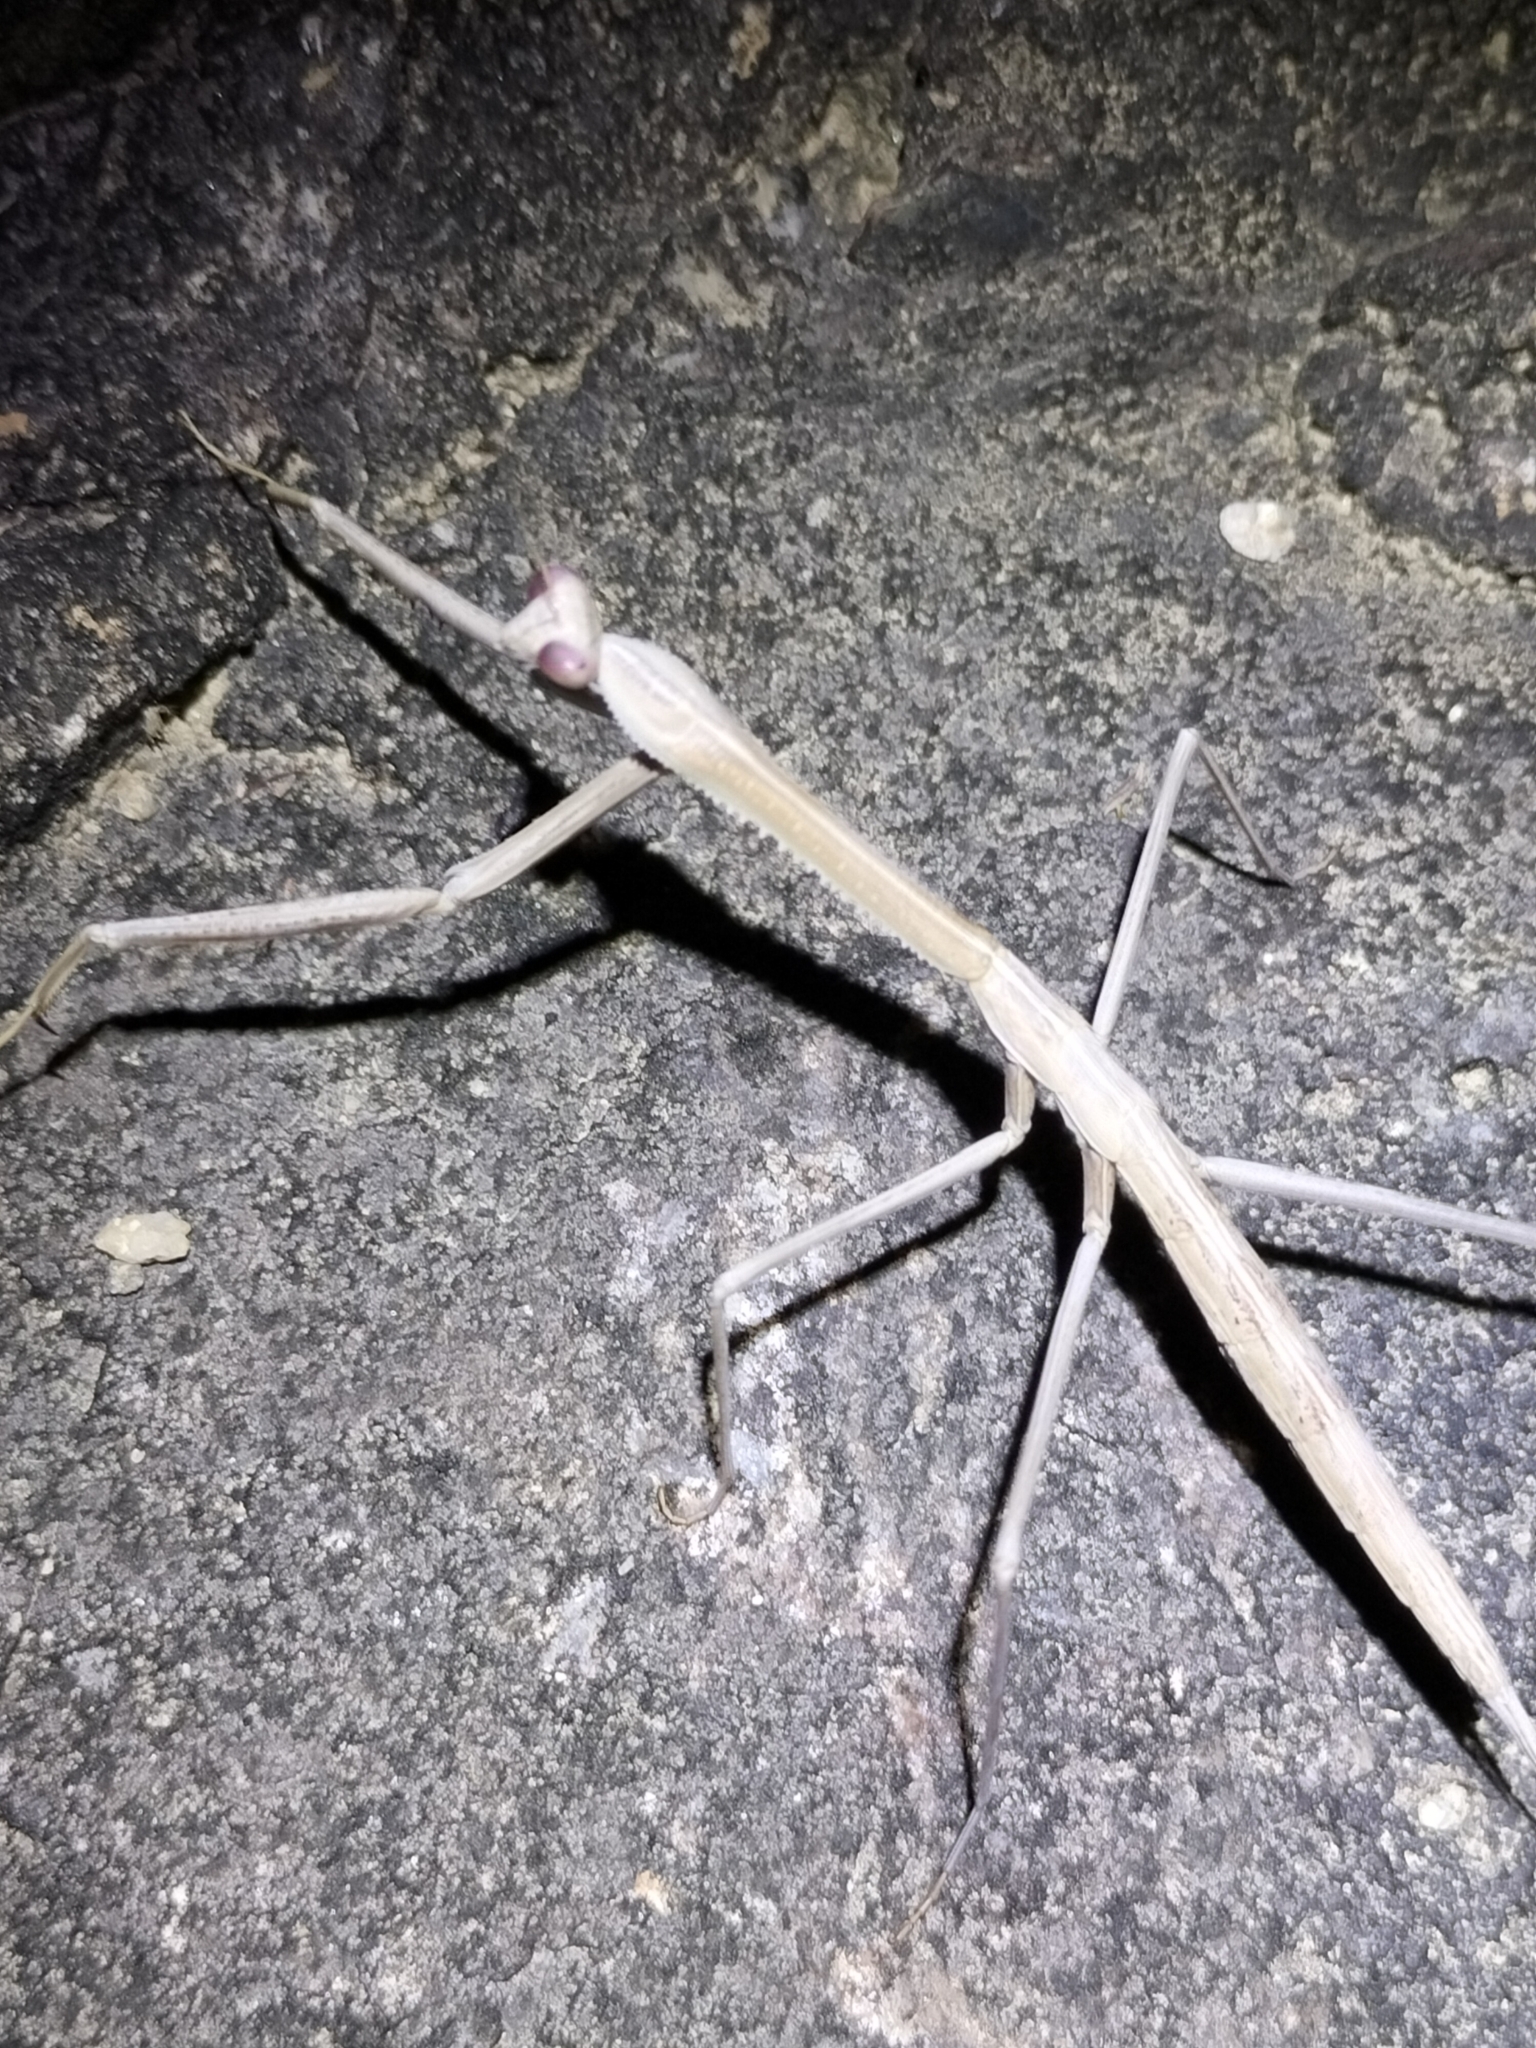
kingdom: Animalia
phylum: Arthropoda
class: Insecta
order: Mantodea
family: Mantidae
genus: Archimantis
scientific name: Archimantis monstrosa
